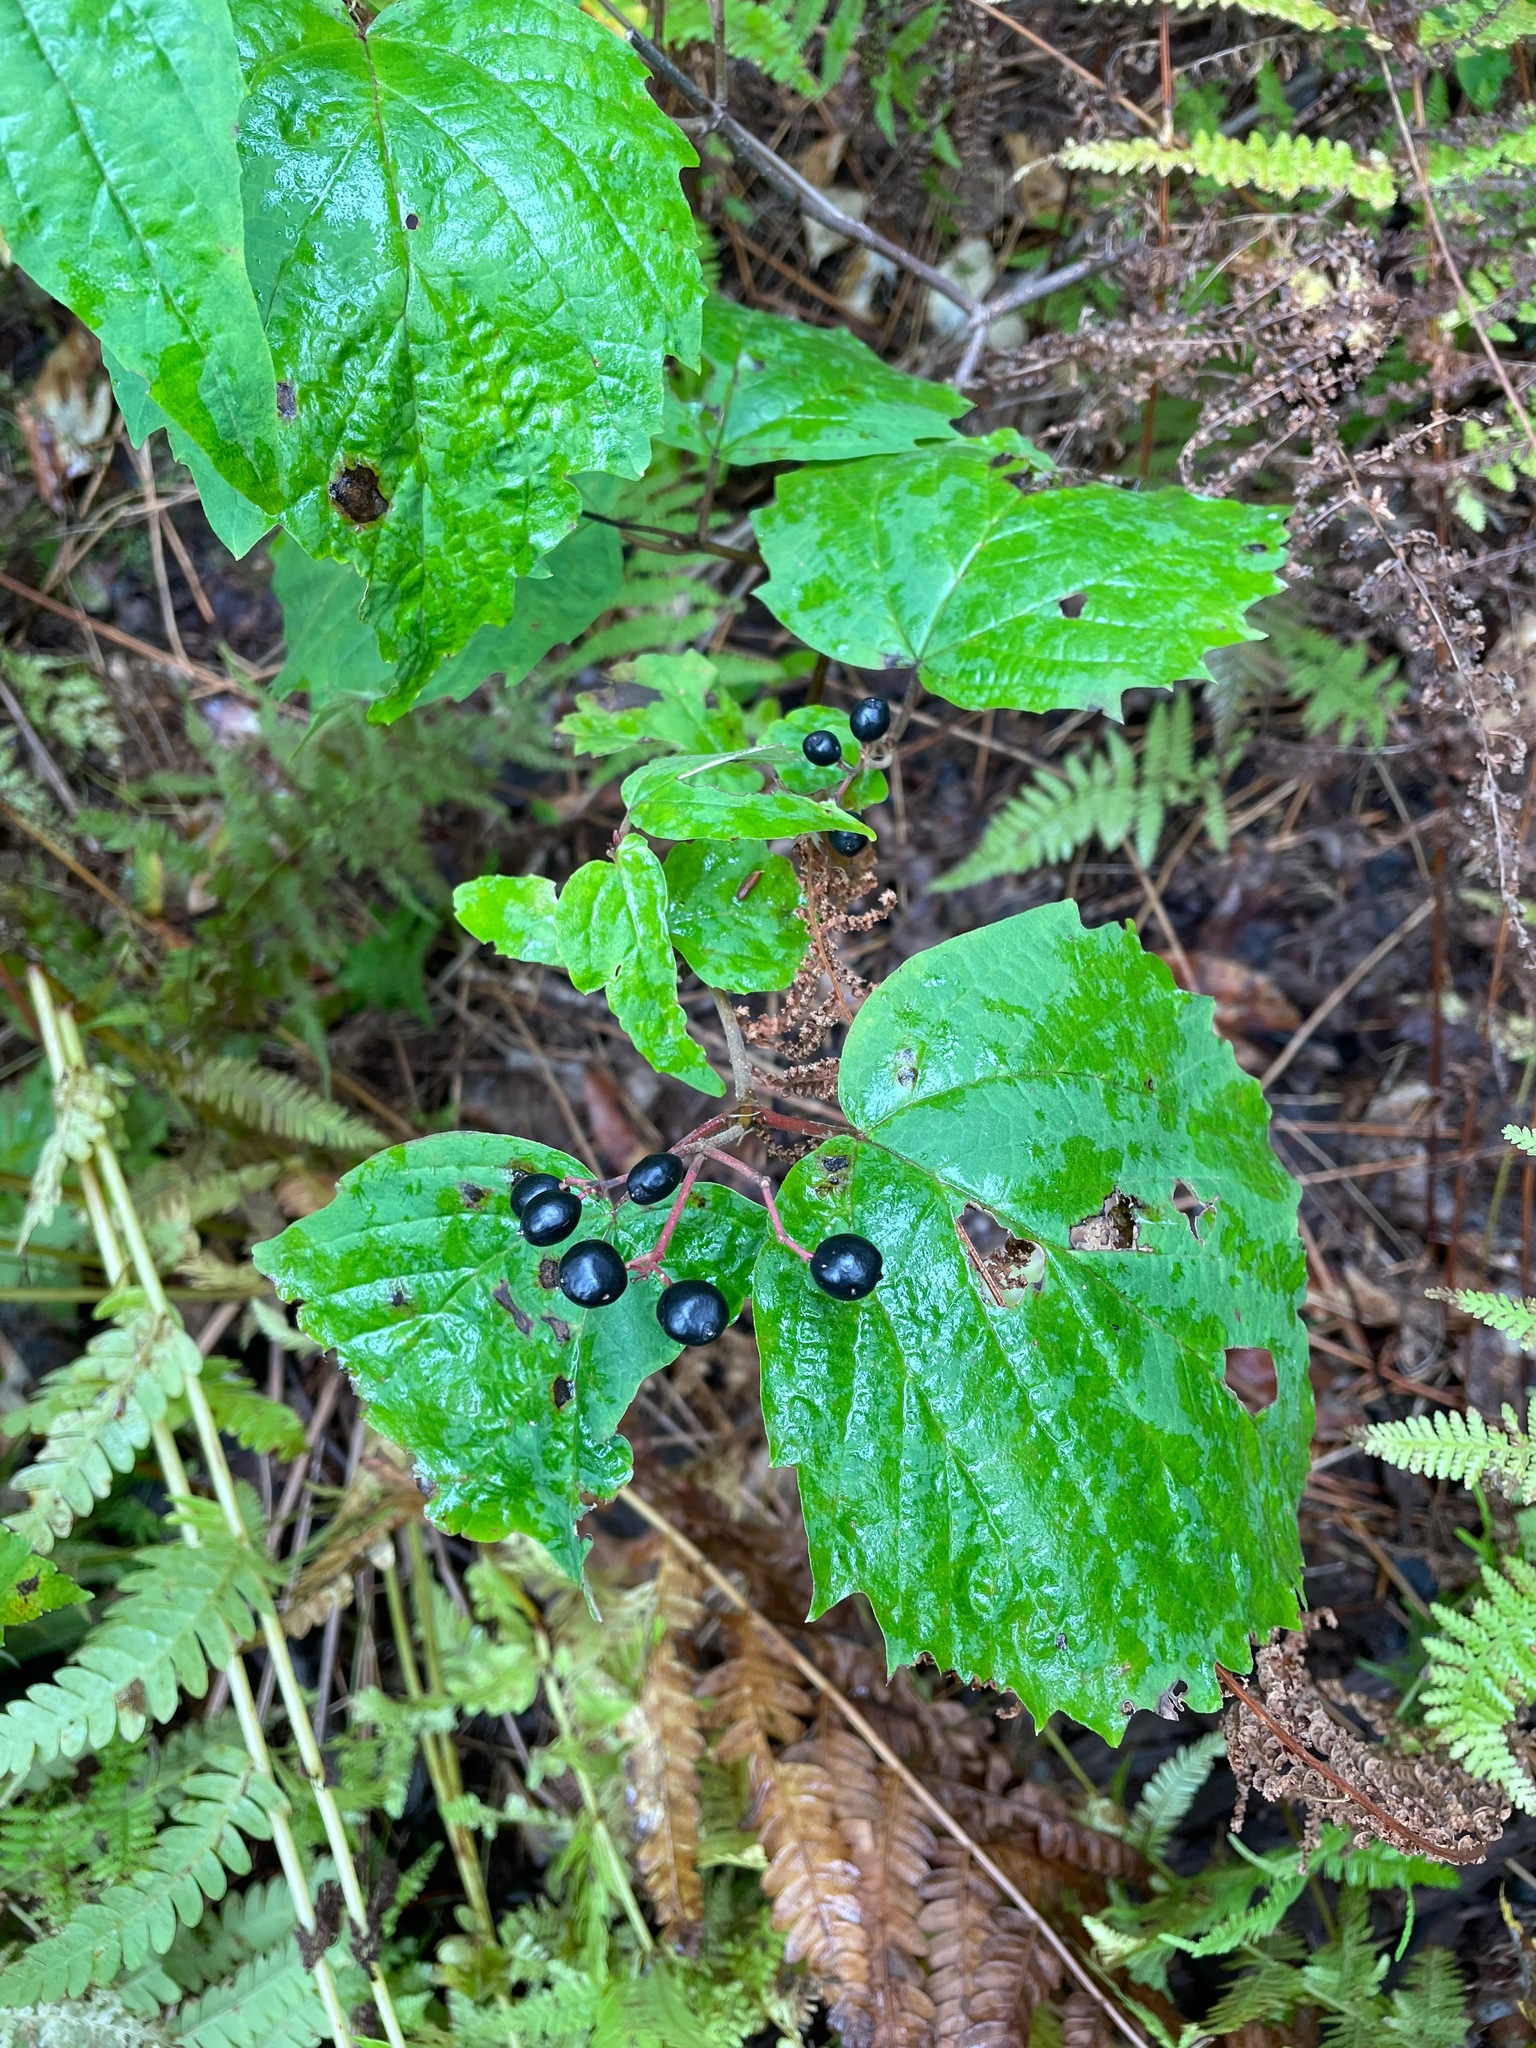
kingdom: Plantae
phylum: Tracheophyta
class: Magnoliopsida
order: Dipsacales
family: Viburnaceae
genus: Viburnum
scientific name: Viburnum acerifolium
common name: Dockmackie
